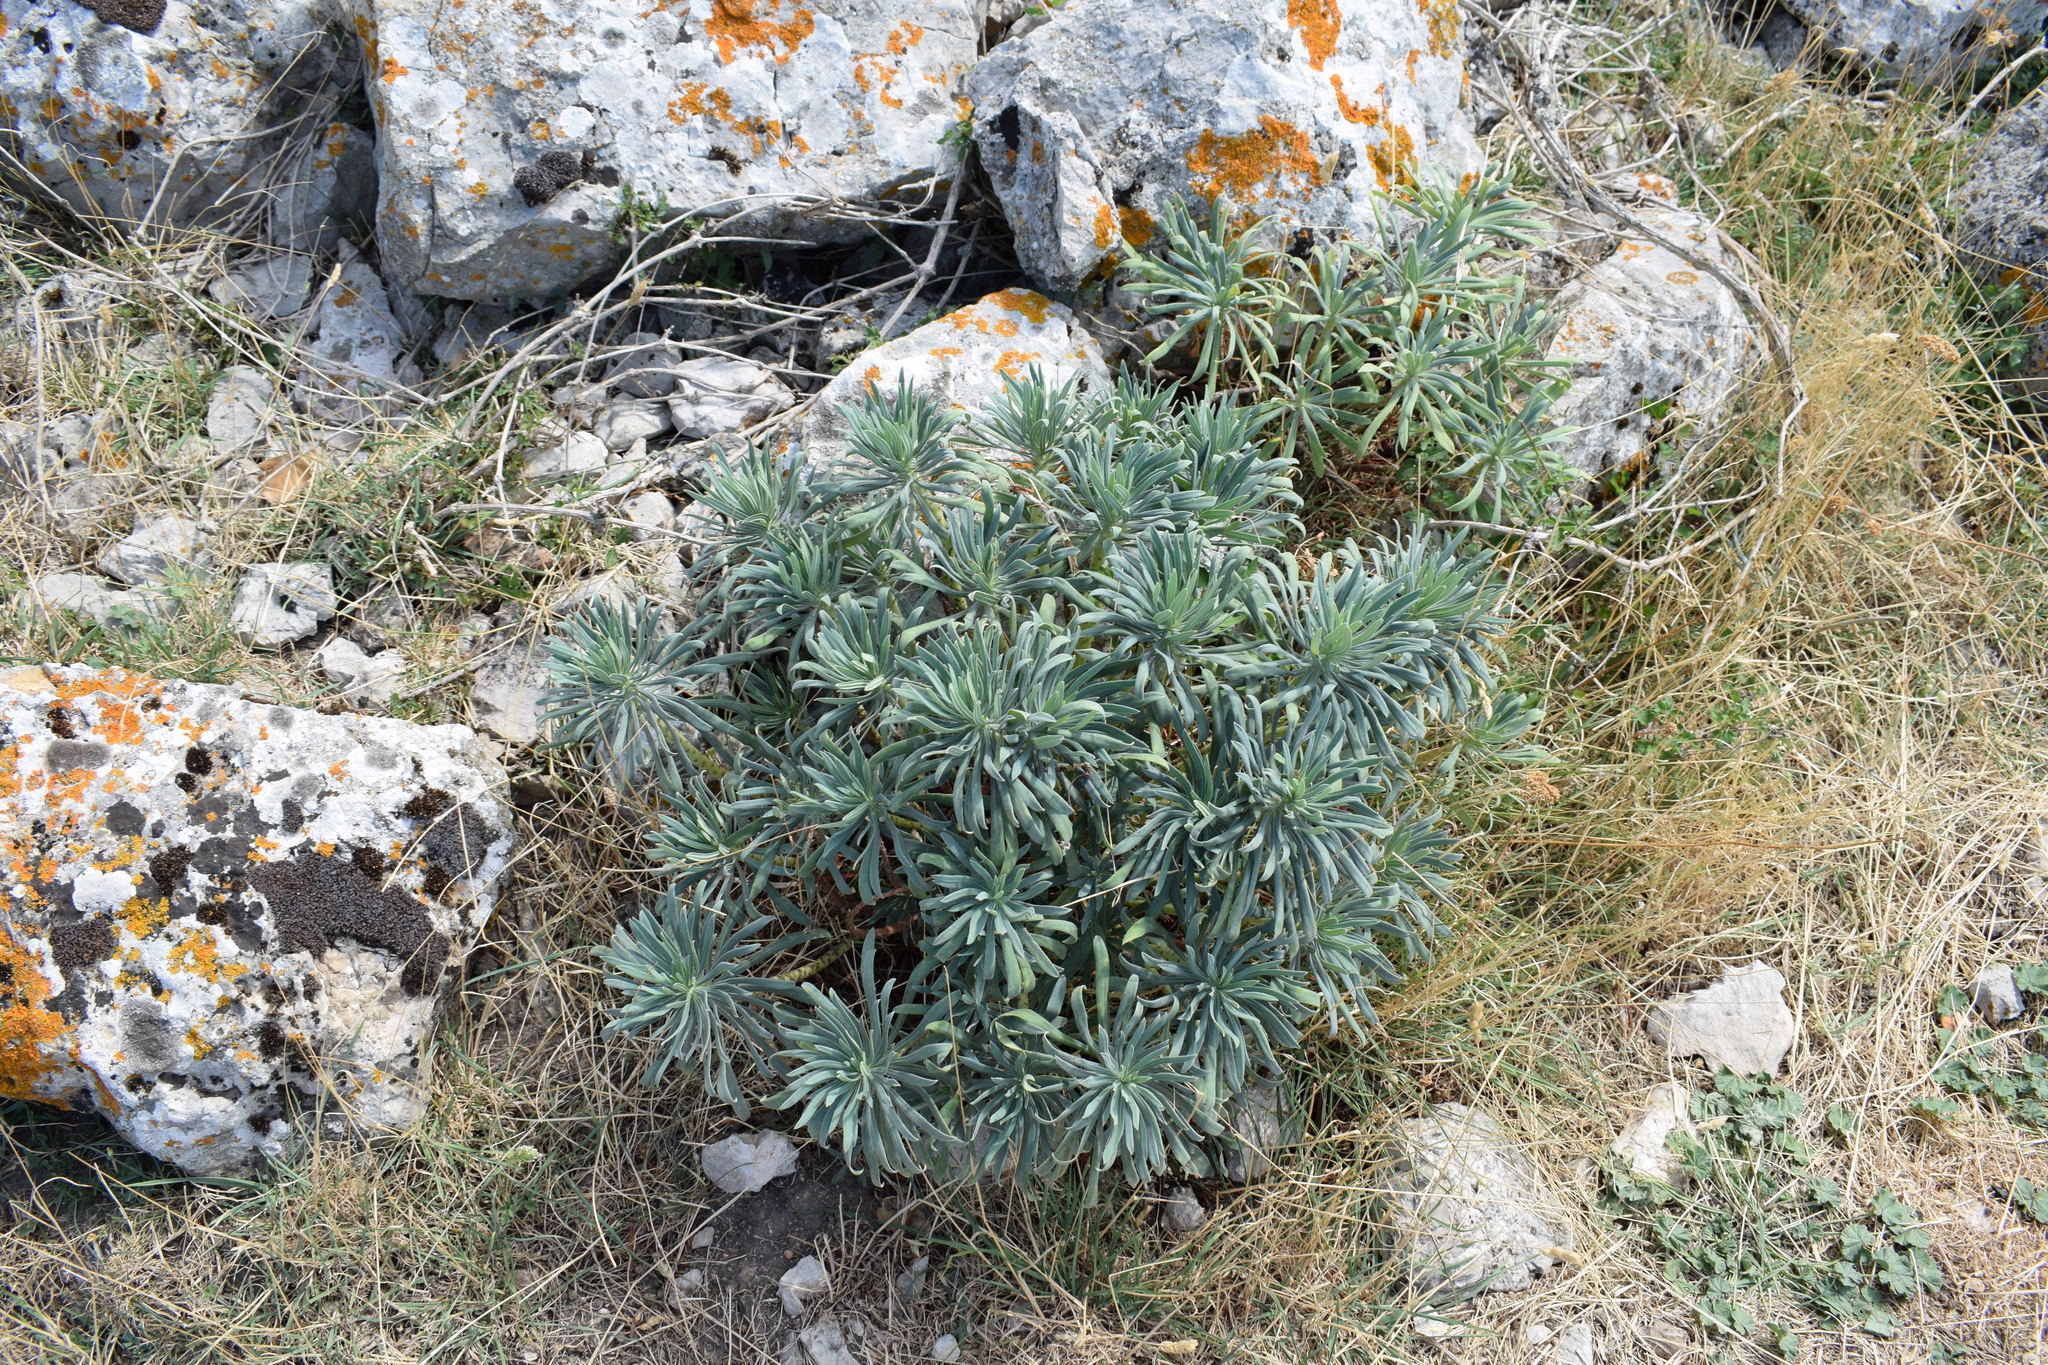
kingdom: Plantae
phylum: Tracheophyta
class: Magnoliopsida
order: Malpighiales
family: Euphorbiaceae
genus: Euphorbia
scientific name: Euphorbia characias
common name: Mediterranean spurge
